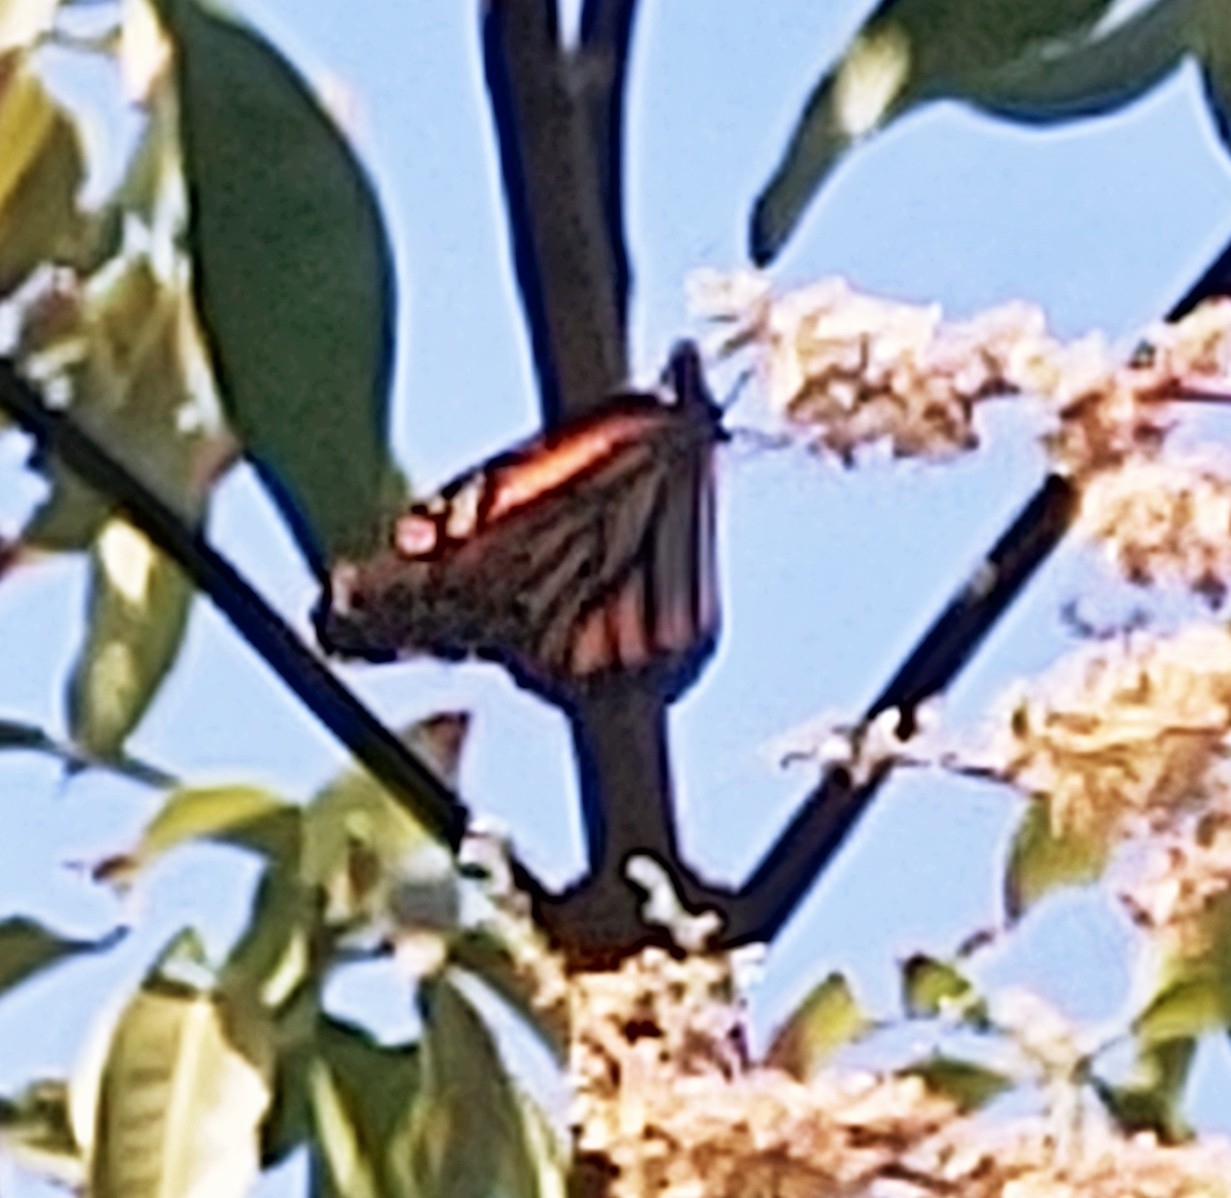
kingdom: Animalia
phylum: Arthropoda
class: Insecta
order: Lepidoptera
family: Nymphalidae
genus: Danaus
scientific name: Danaus plexippus
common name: Monarch
